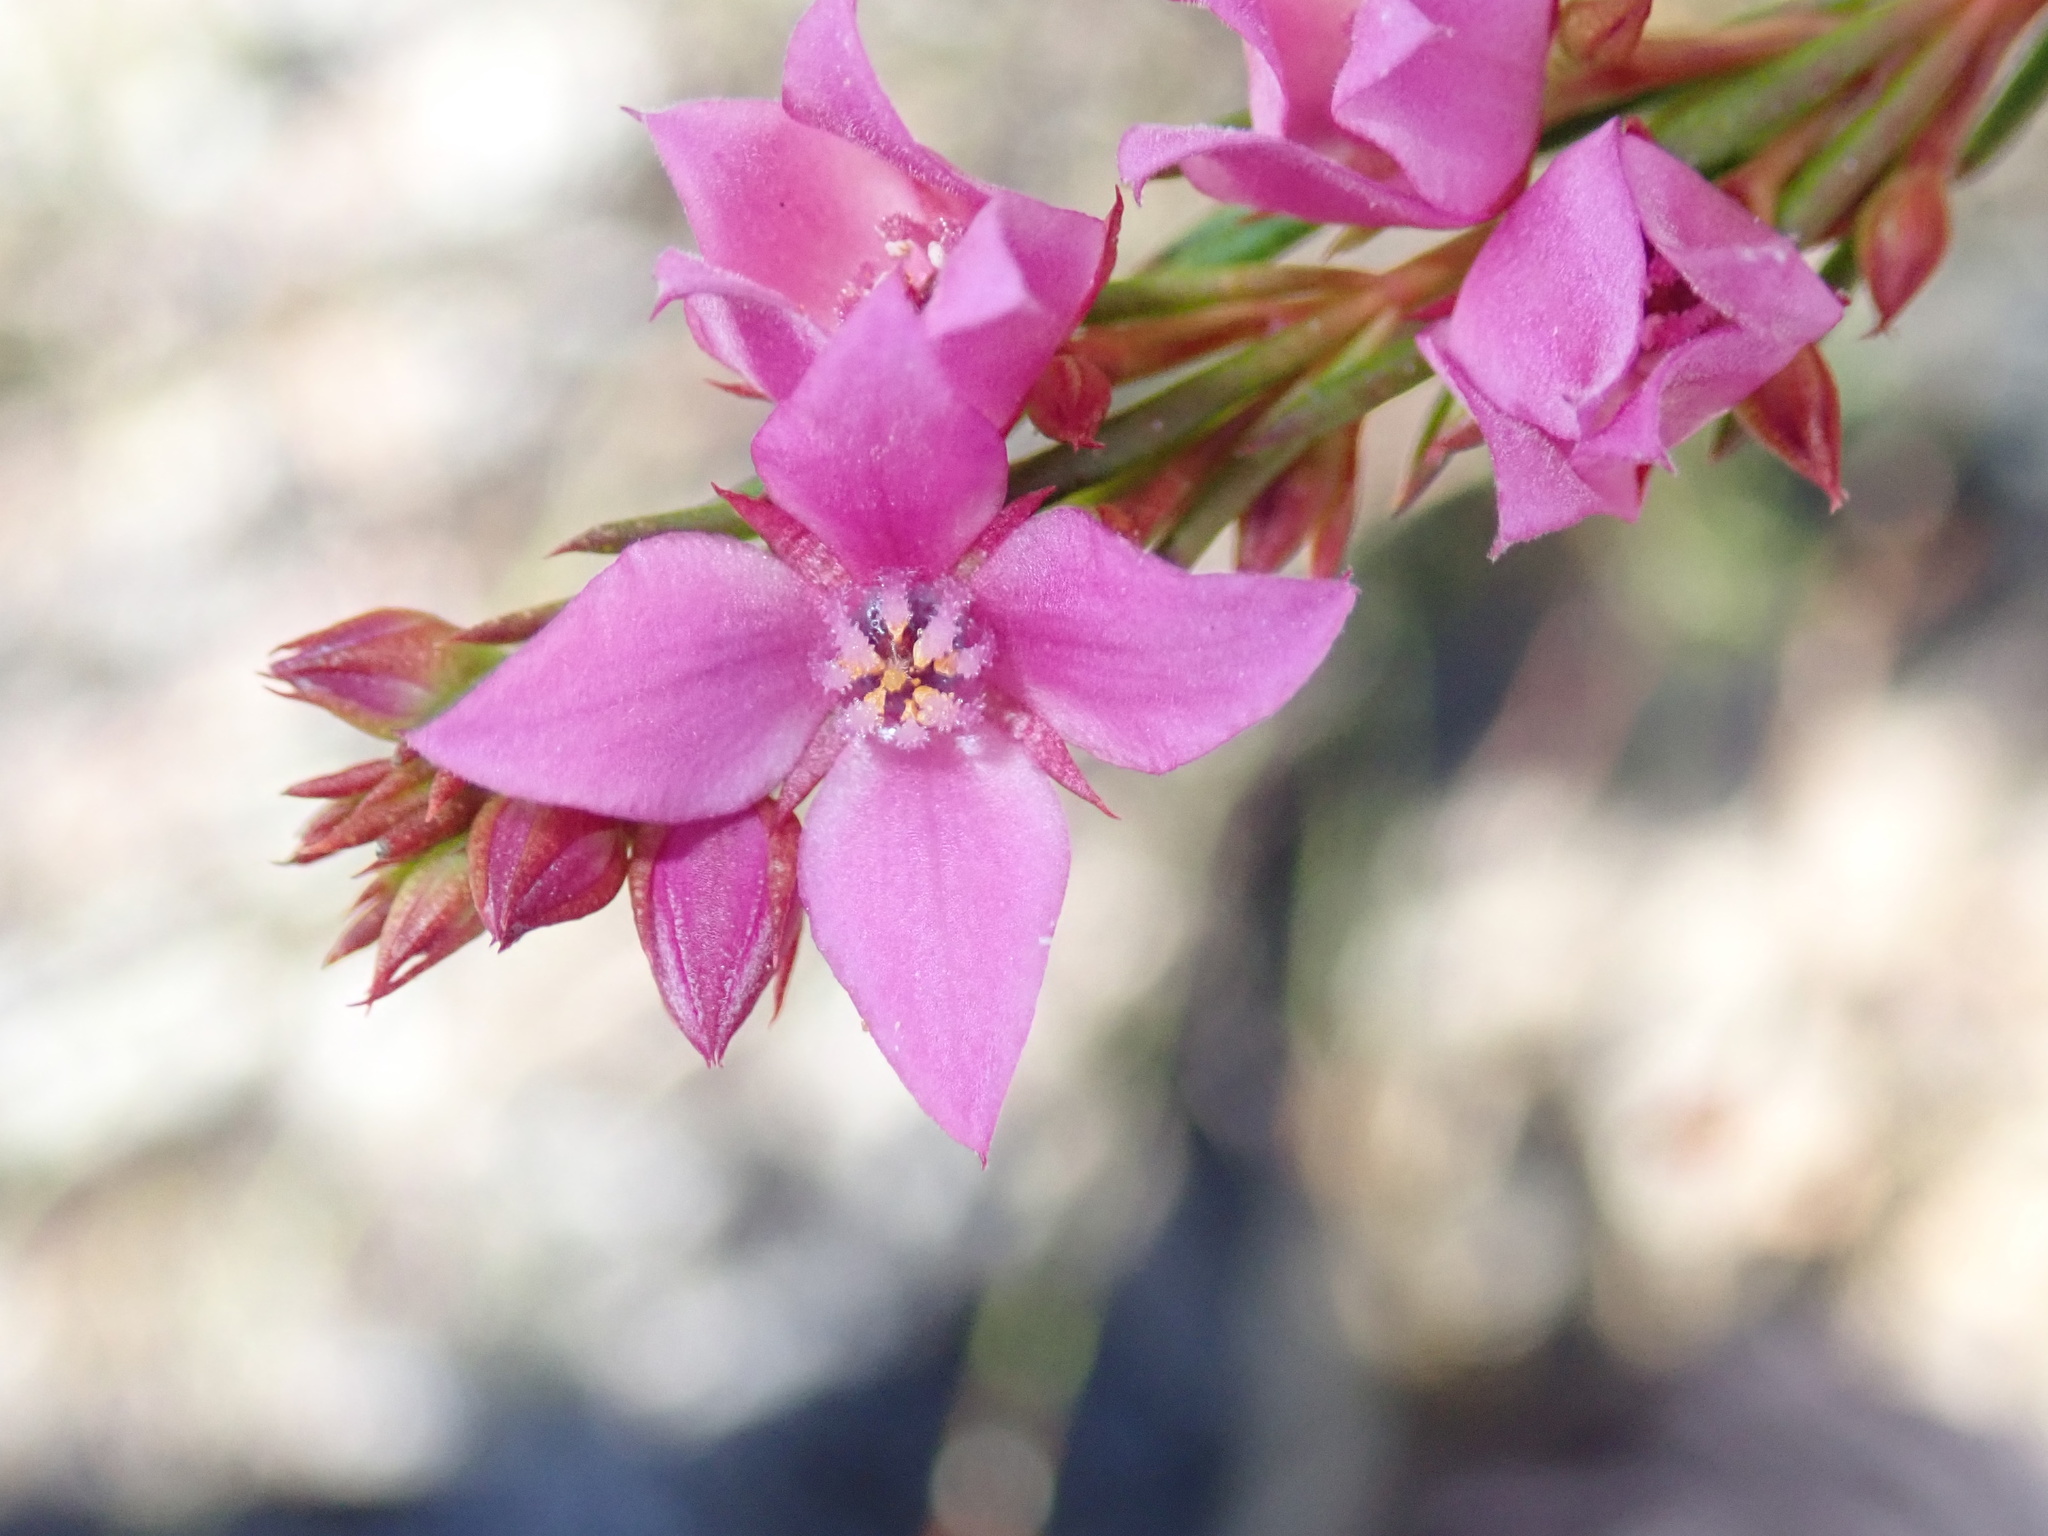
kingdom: Plantae
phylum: Tracheophyta
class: Magnoliopsida
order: Sapindales
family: Rutaceae
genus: Boronia
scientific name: Boronia falcifolia
